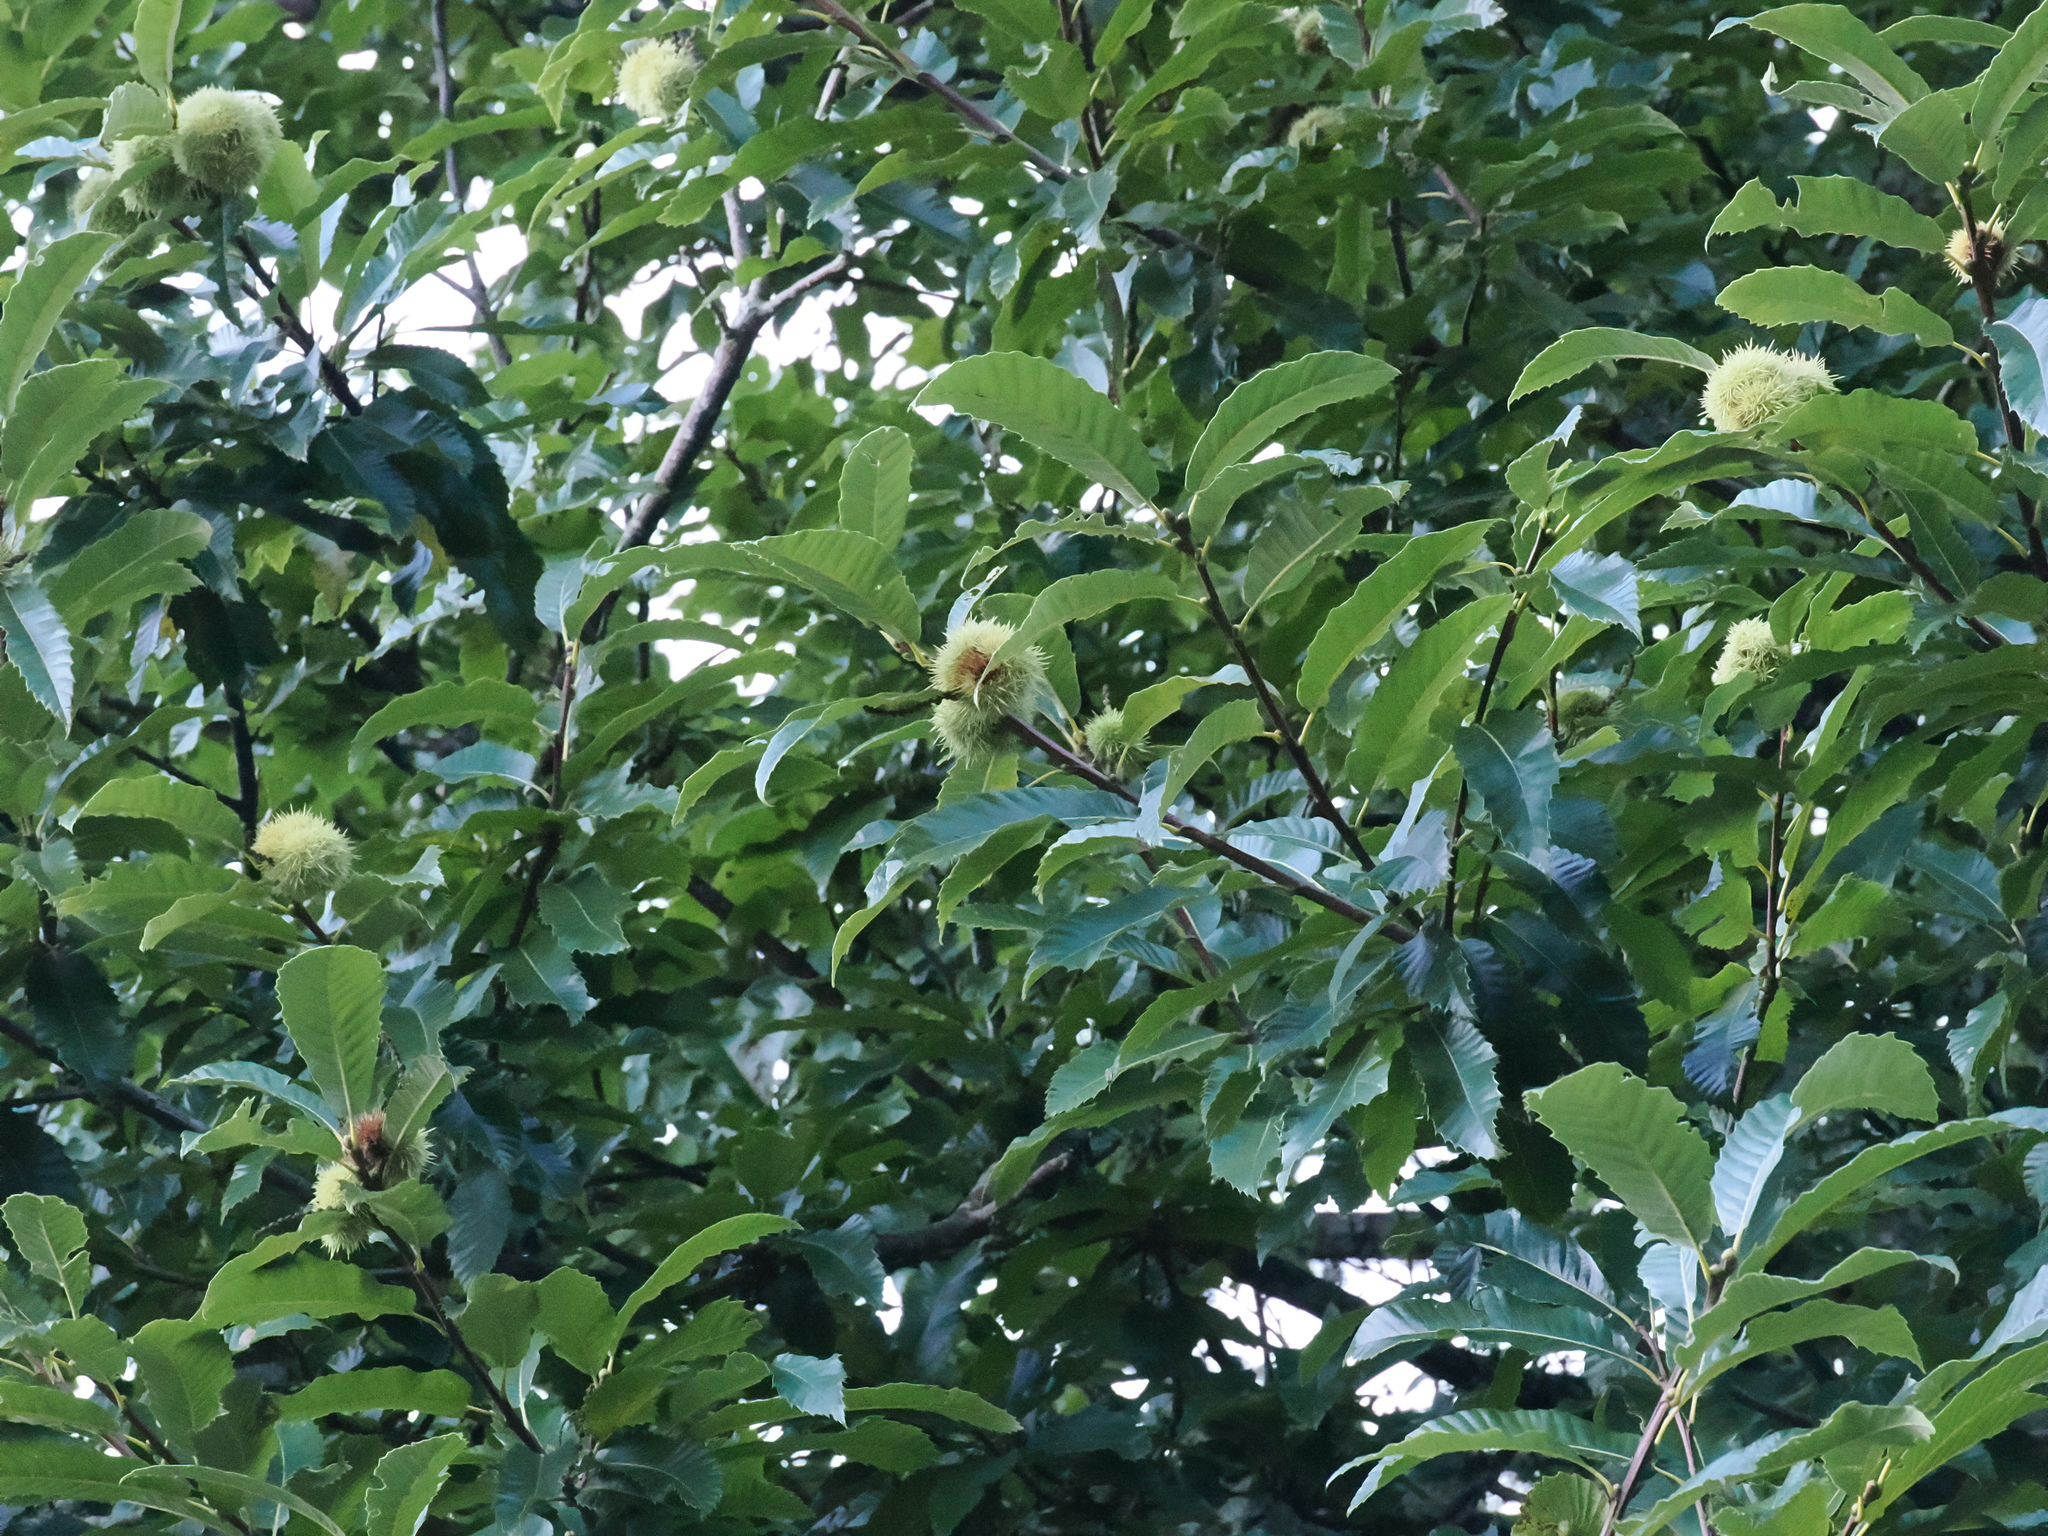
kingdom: Plantae
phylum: Tracheophyta
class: Magnoliopsida
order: Fagales
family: Fagaceae
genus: Castanea
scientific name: Castanea sativa
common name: Sweet chestnut
